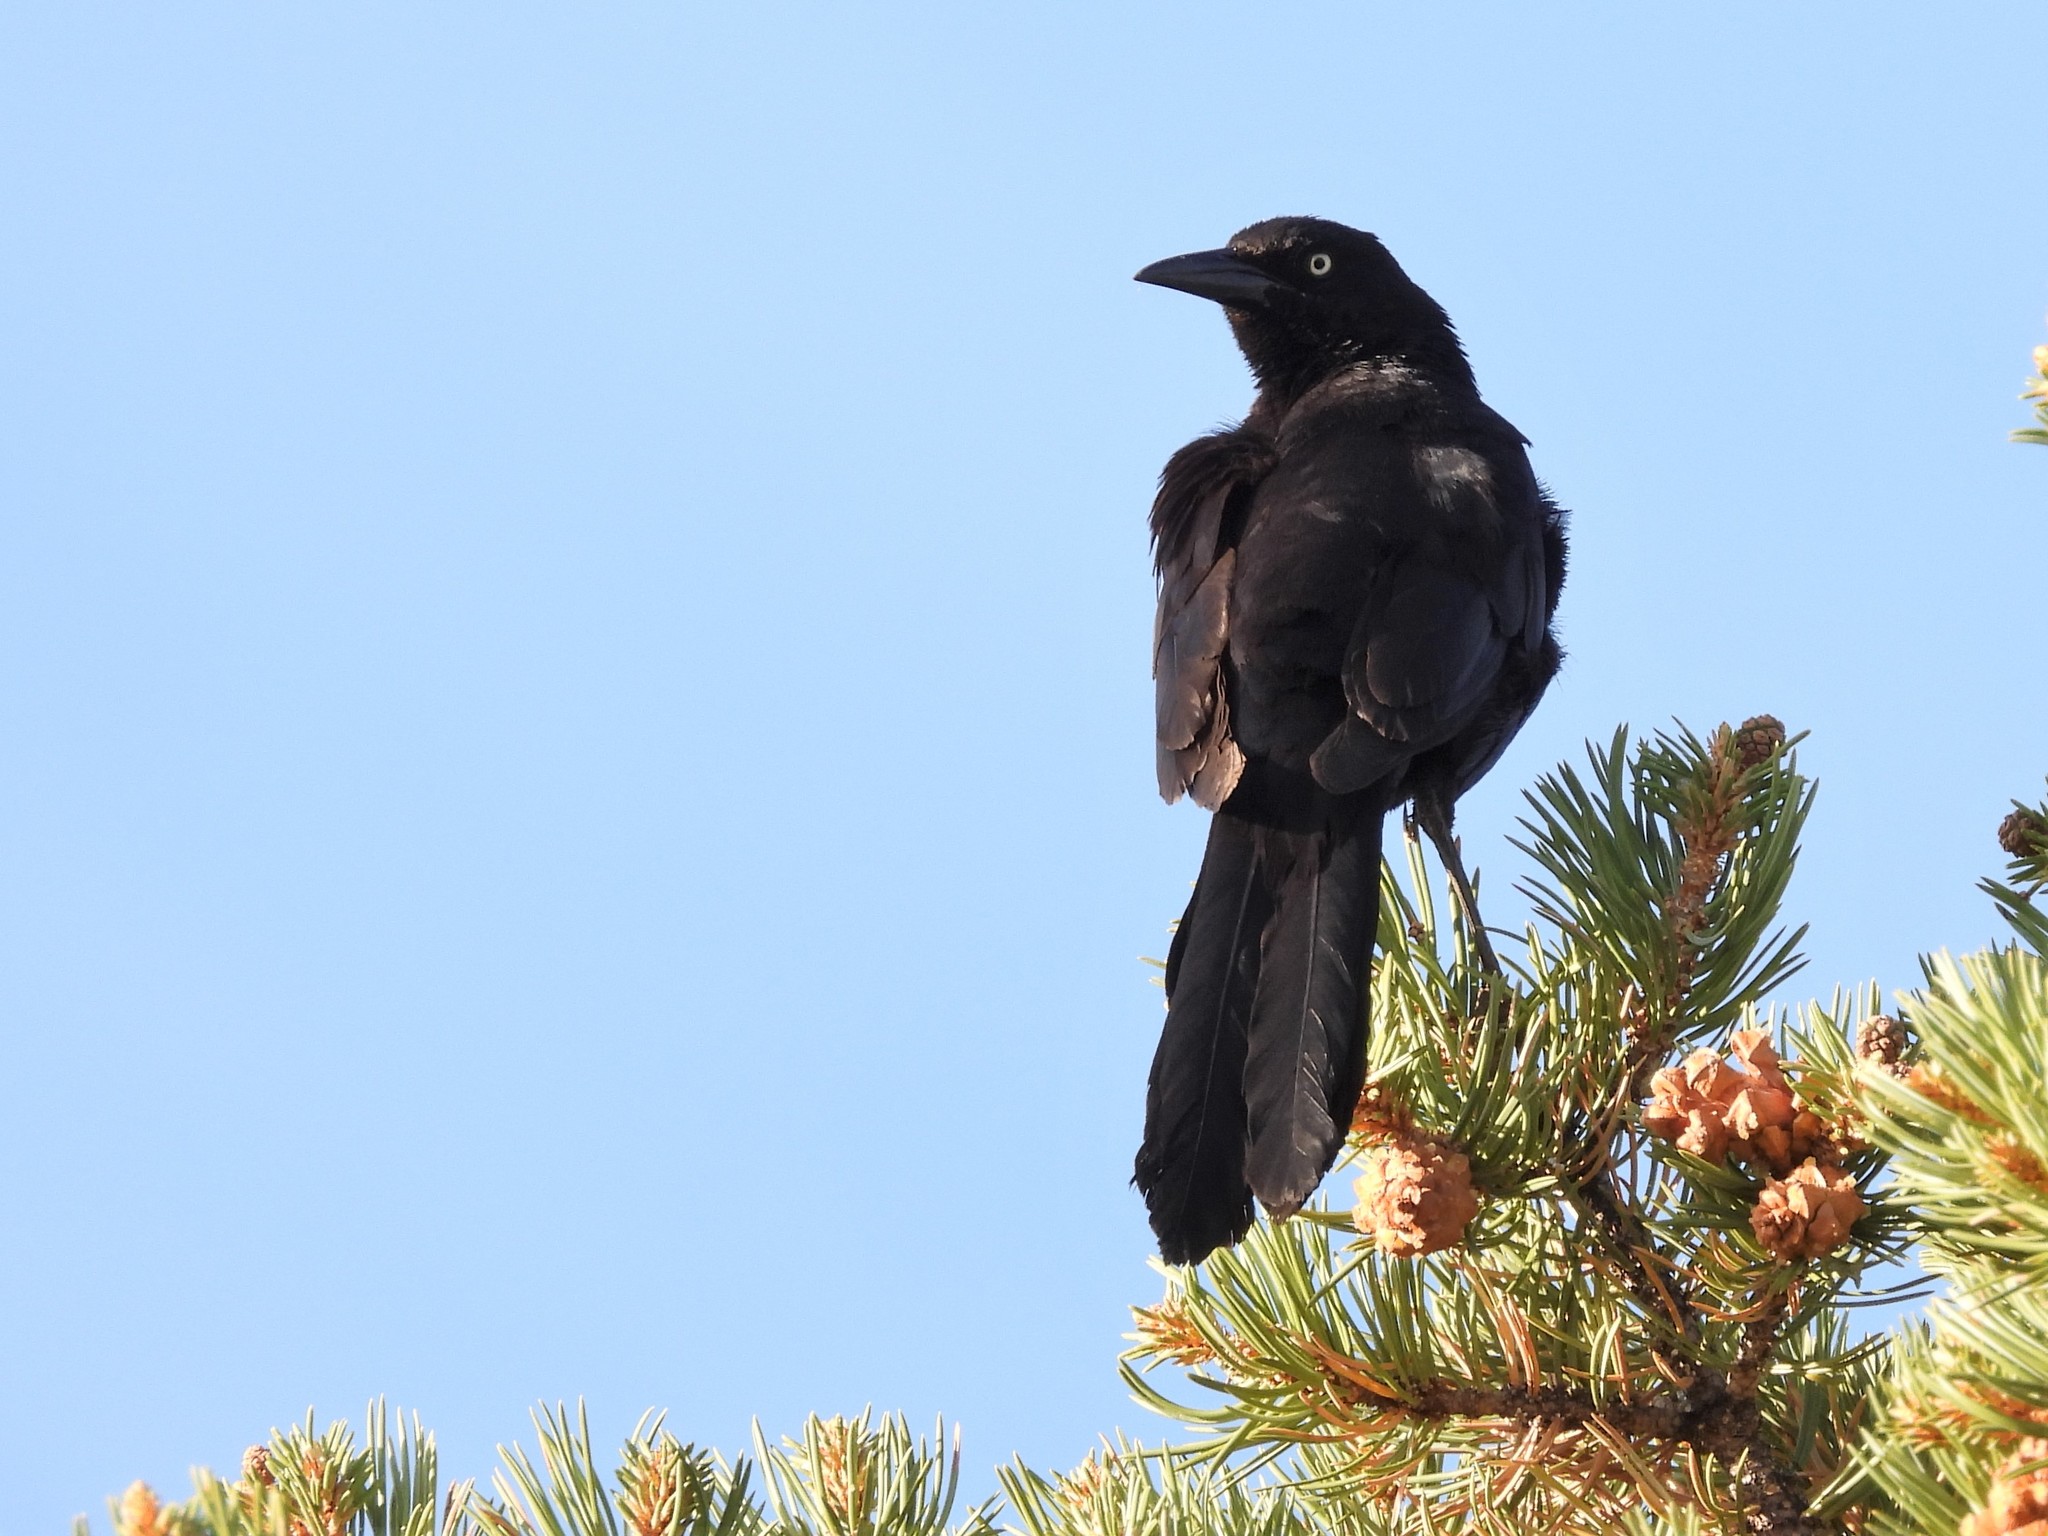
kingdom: Animalia
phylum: Chordata
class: Aves
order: Passeriformes
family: Icteridae
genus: Quiscalus
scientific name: Quiscalus mexicanus
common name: Great-tailed grackle
